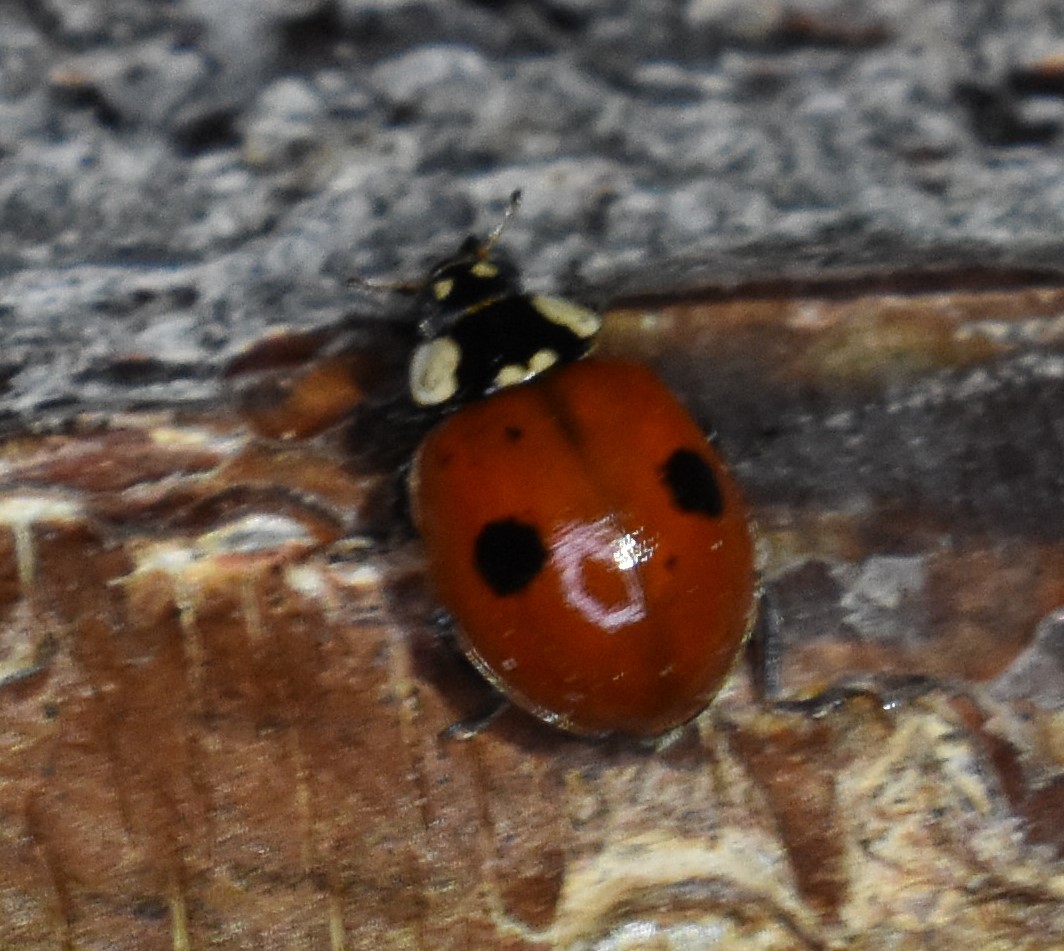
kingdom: Animalia
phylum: Arthropoda
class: Insecta
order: Coleoptera
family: Coccinellidae
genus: Adalia
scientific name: Adalia bipunctata
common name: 2-spot ladybird
